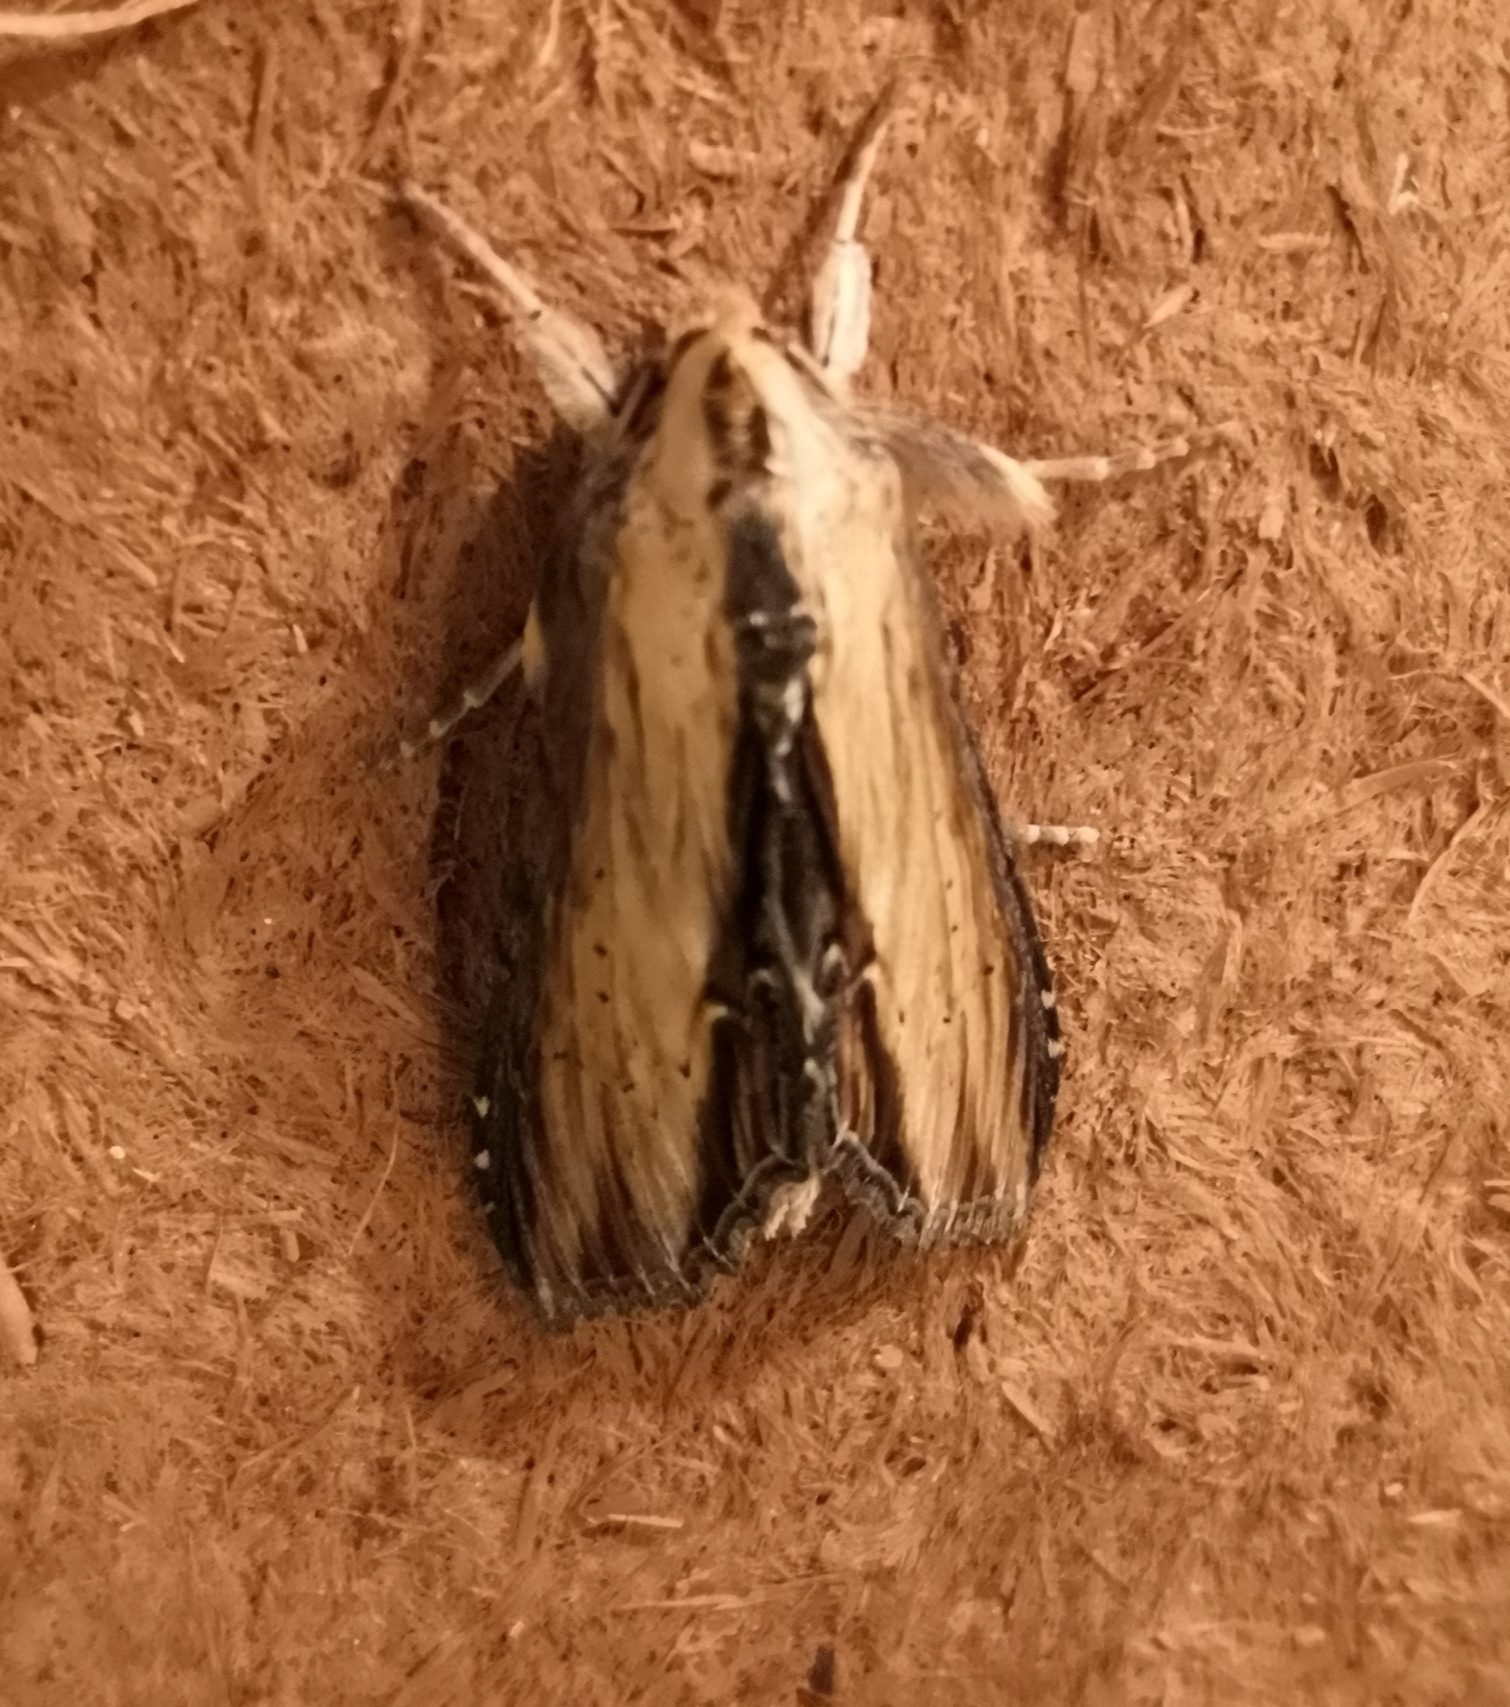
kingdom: Animalia
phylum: Arthropoda
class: Insecta
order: Lepidoptera
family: Noctuidae
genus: Shargacucullia
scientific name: Shargacucullia scrophulariae
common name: Water betony
